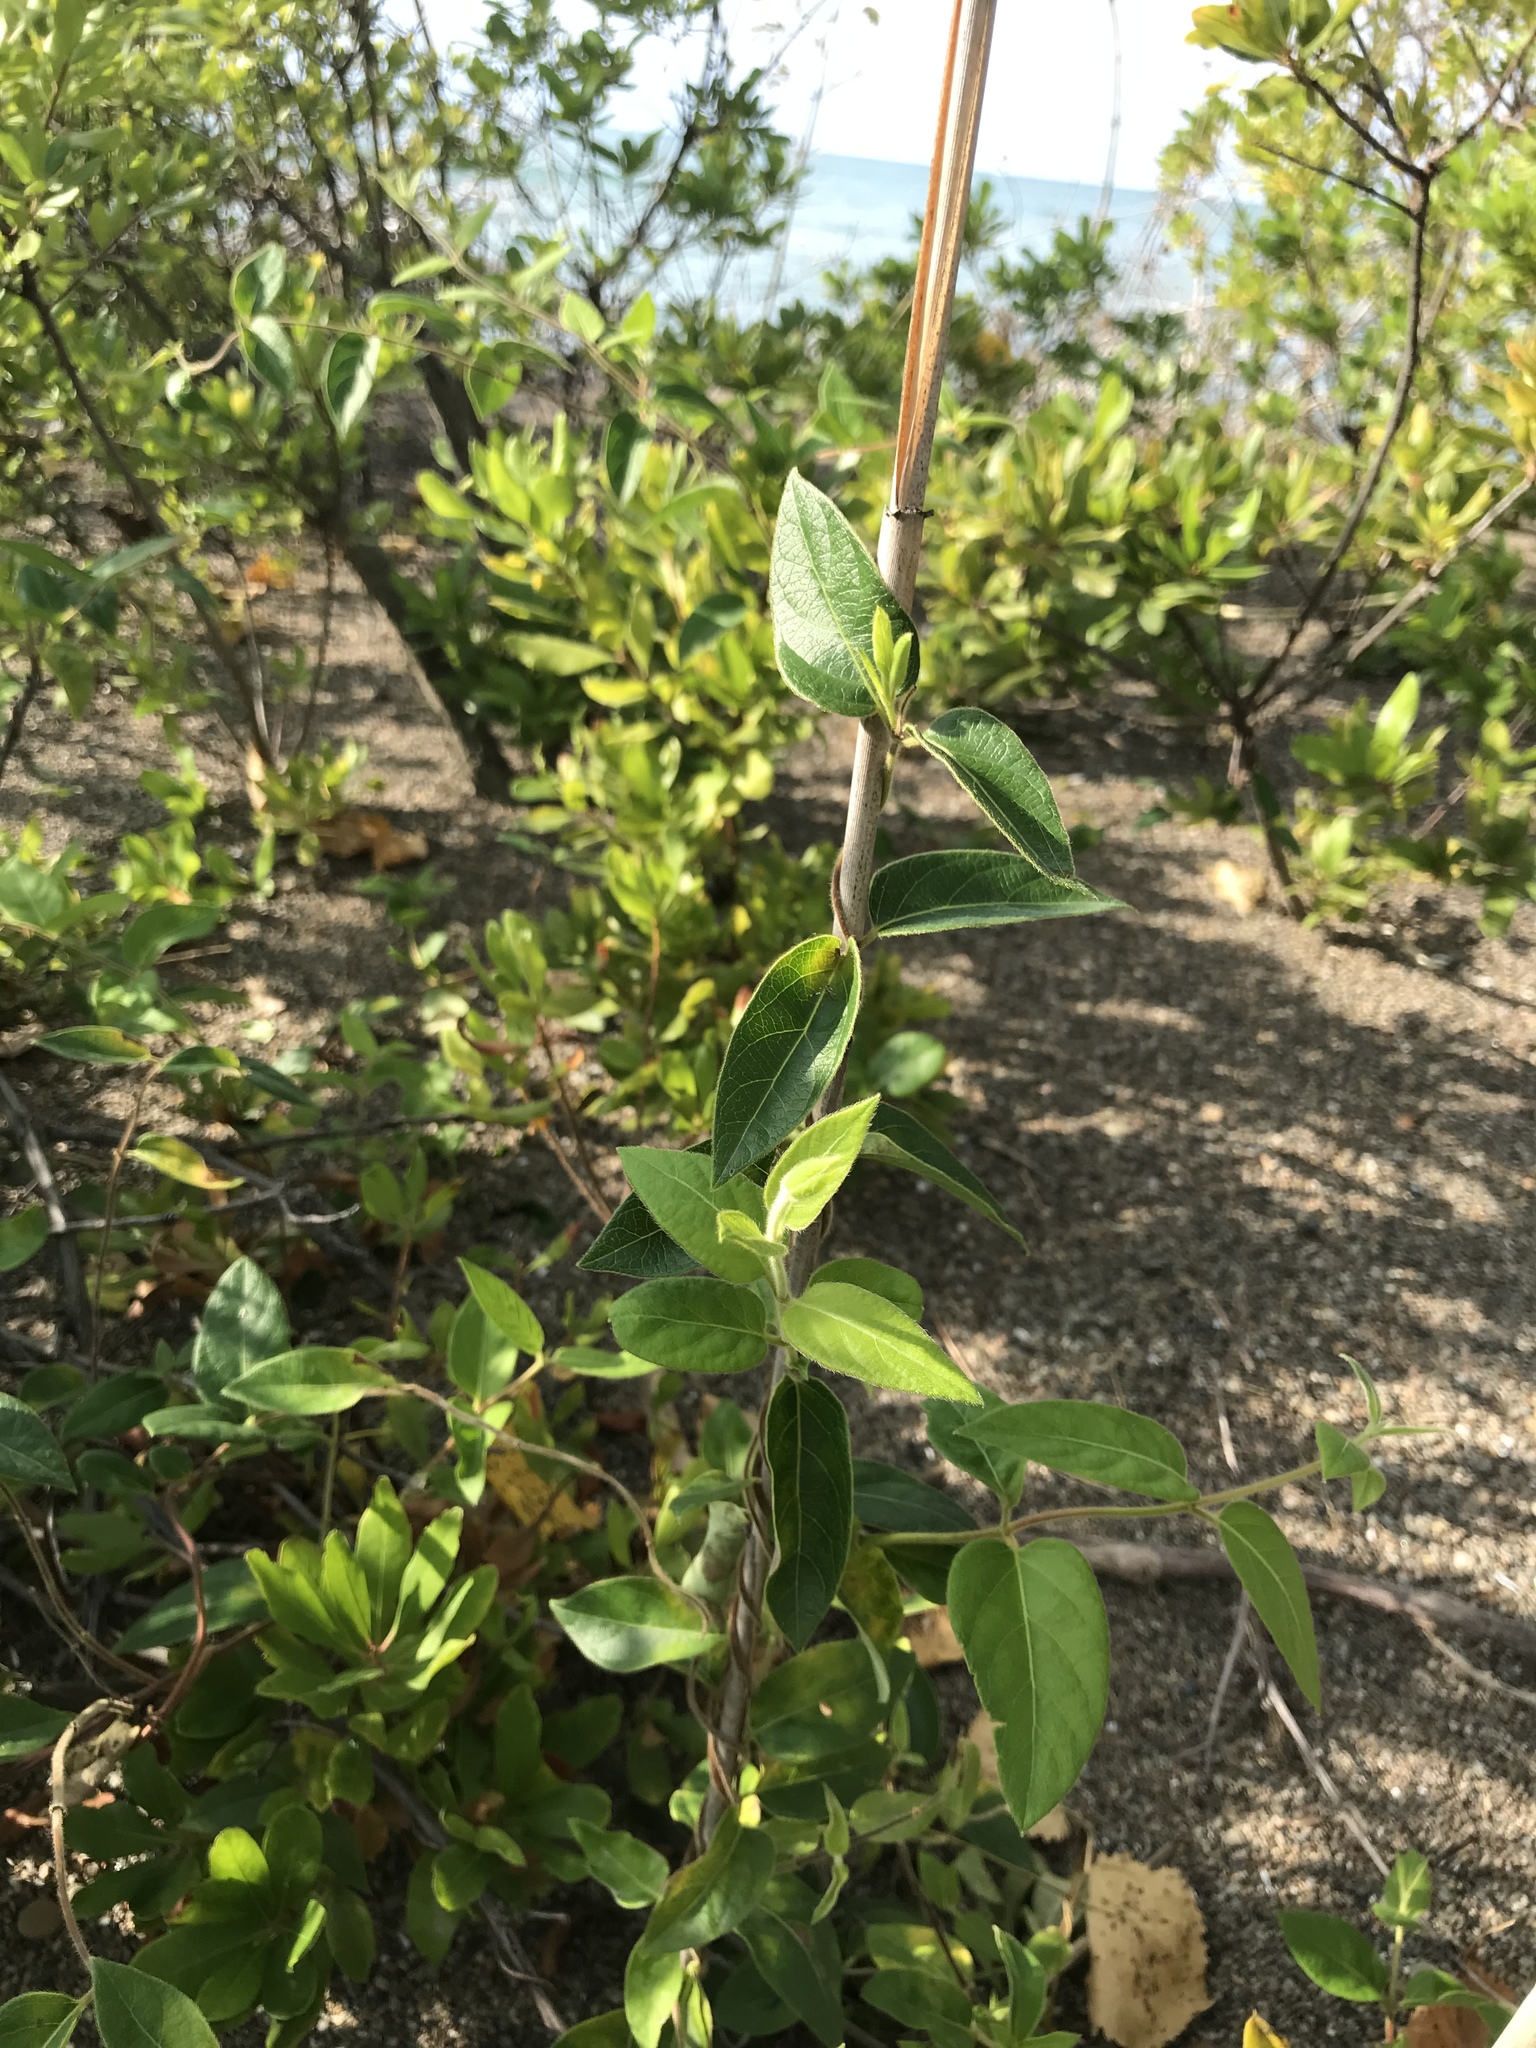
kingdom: Plantae
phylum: Tracheophyta
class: Magnoliopsida
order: Dipsacales
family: Caprifoliaceae
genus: Lonicera
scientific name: Lonicera japonica
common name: Japanese honeysuckle
